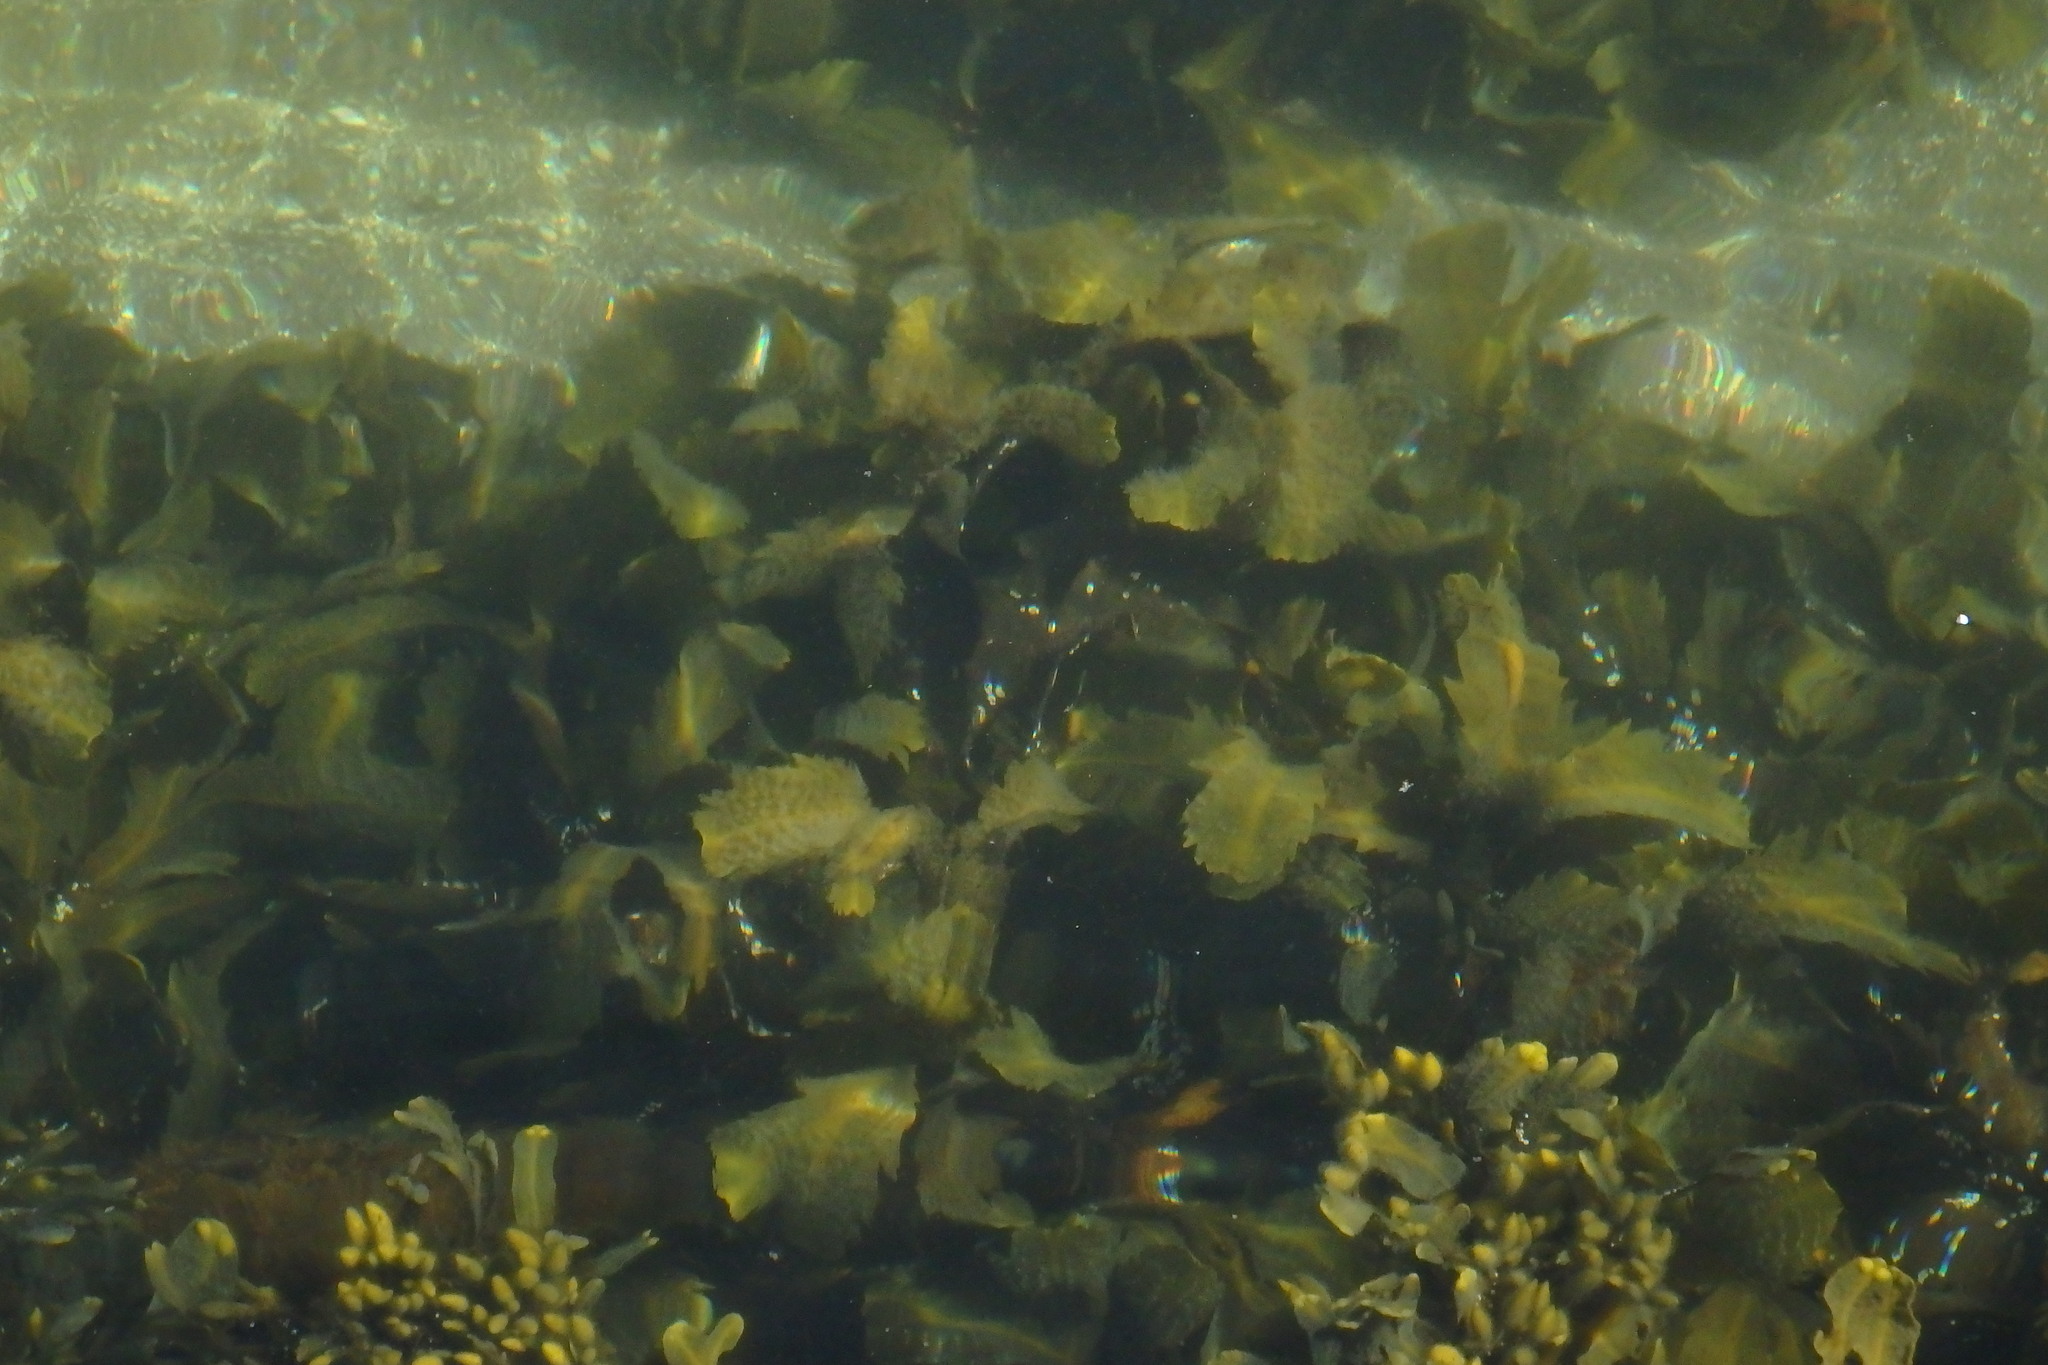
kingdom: Chromista
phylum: Ochrophyta
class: Phaeophyceae
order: Fucales
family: Fucaceae
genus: Fucus
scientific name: Fucus serratus
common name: Toothed wrack
